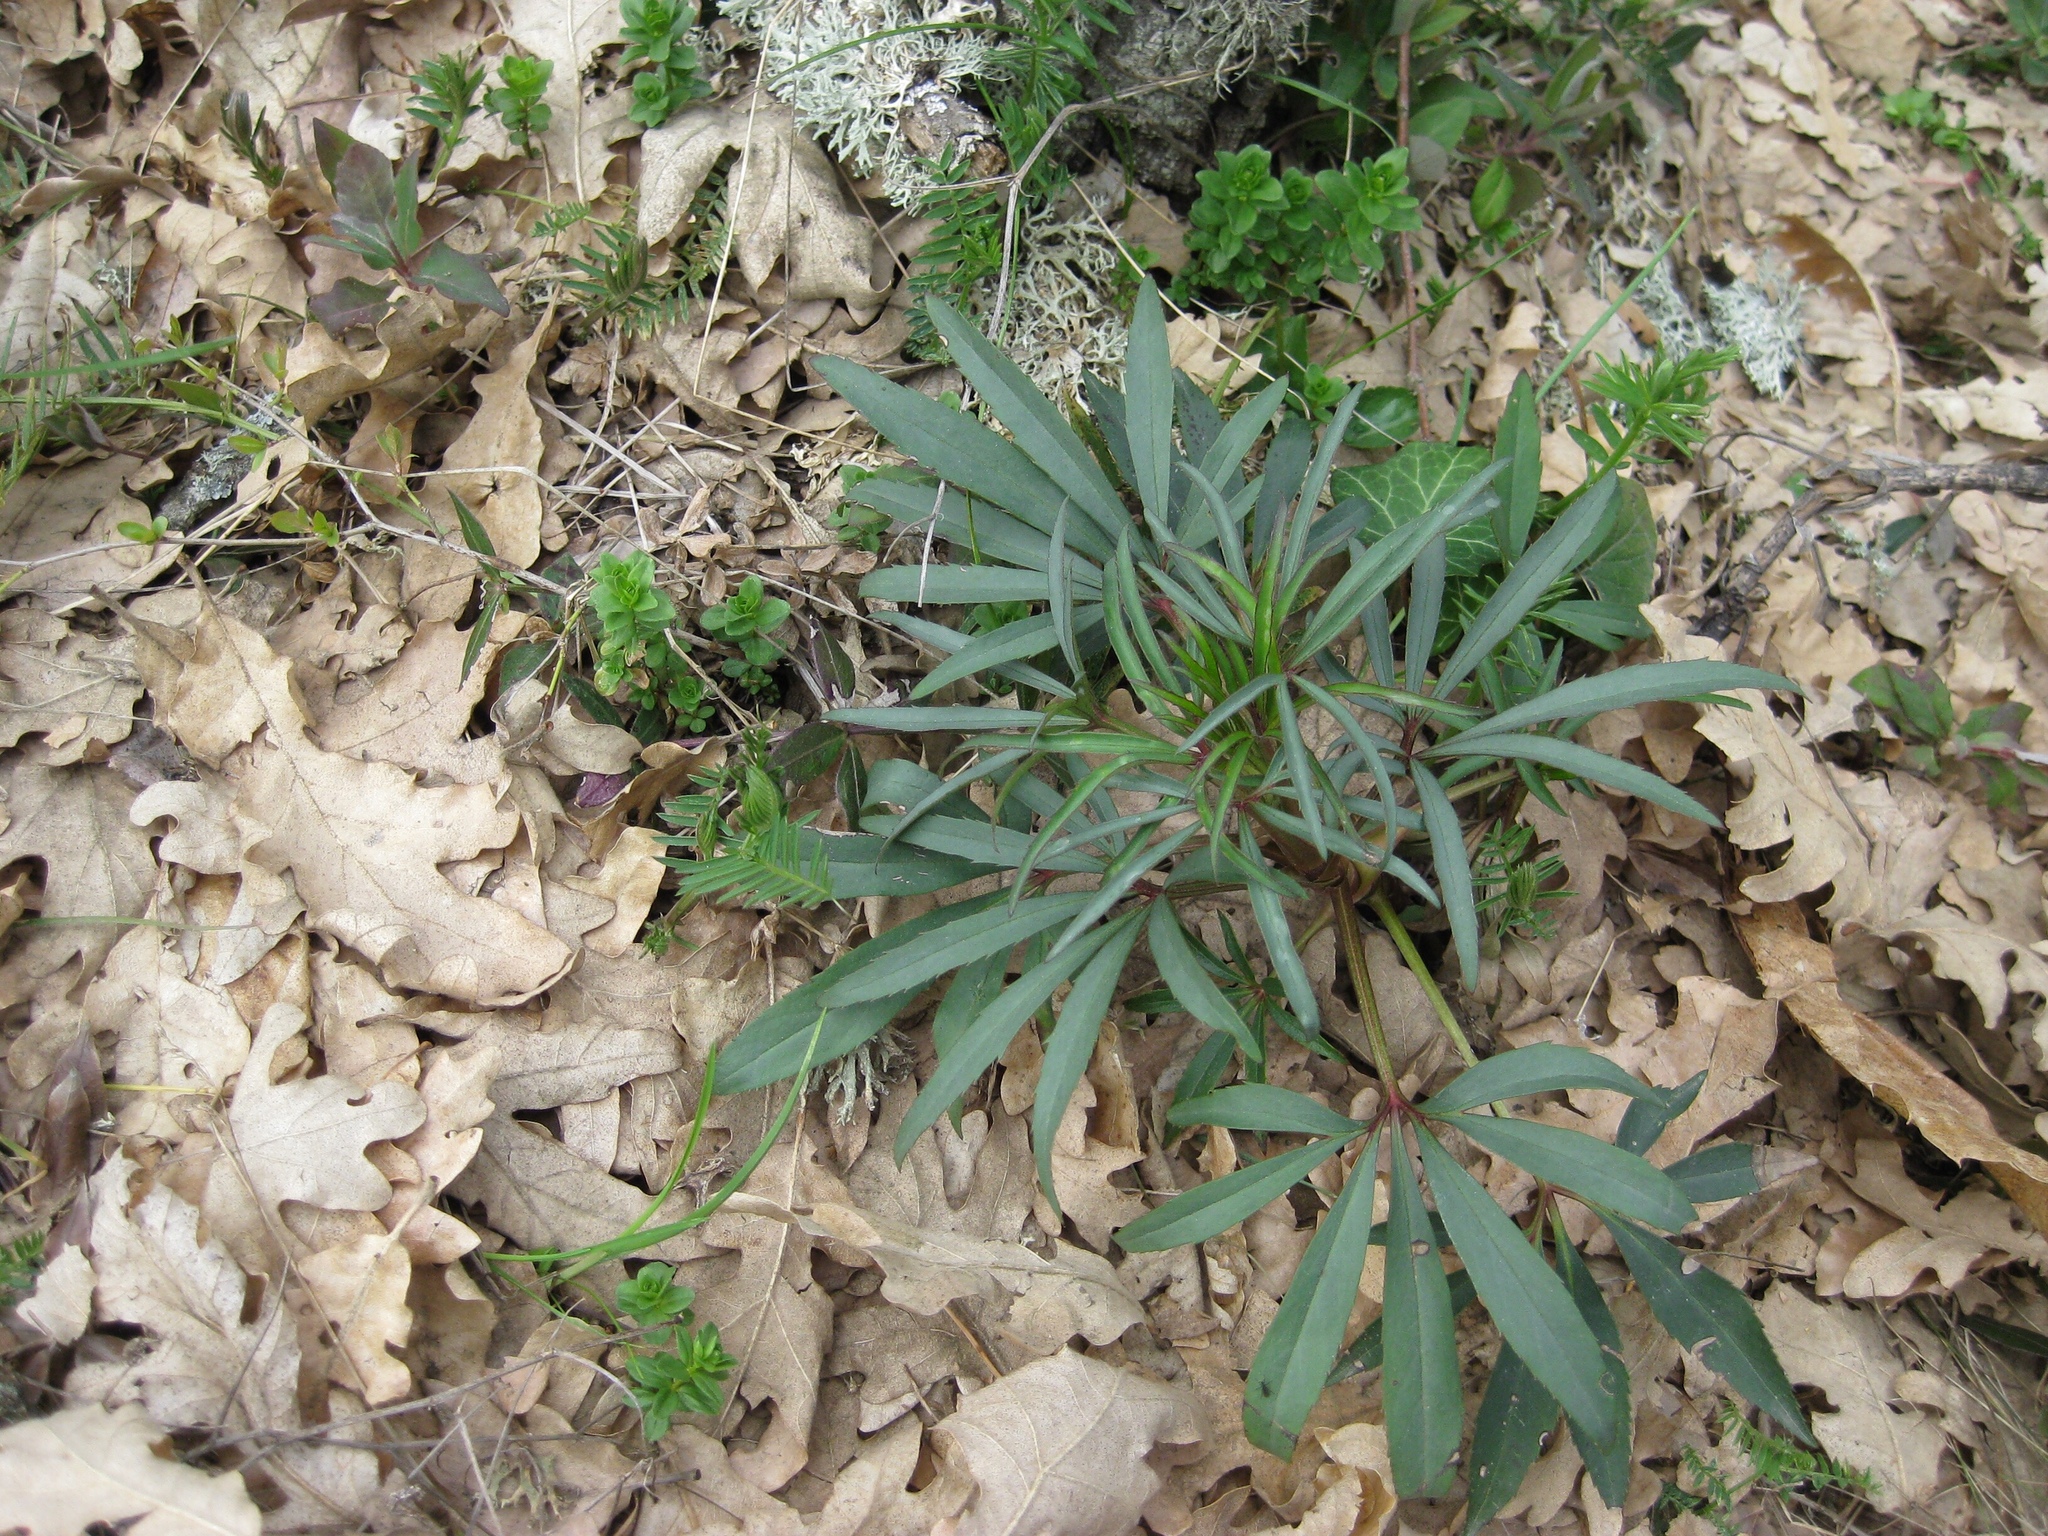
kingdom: Plantae
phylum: Tracheophyta
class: Magnoliopsida
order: Ranunculales
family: Ranunculaceae
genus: Helleborus
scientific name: Helleborus foetidus
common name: Stinking hellebore
